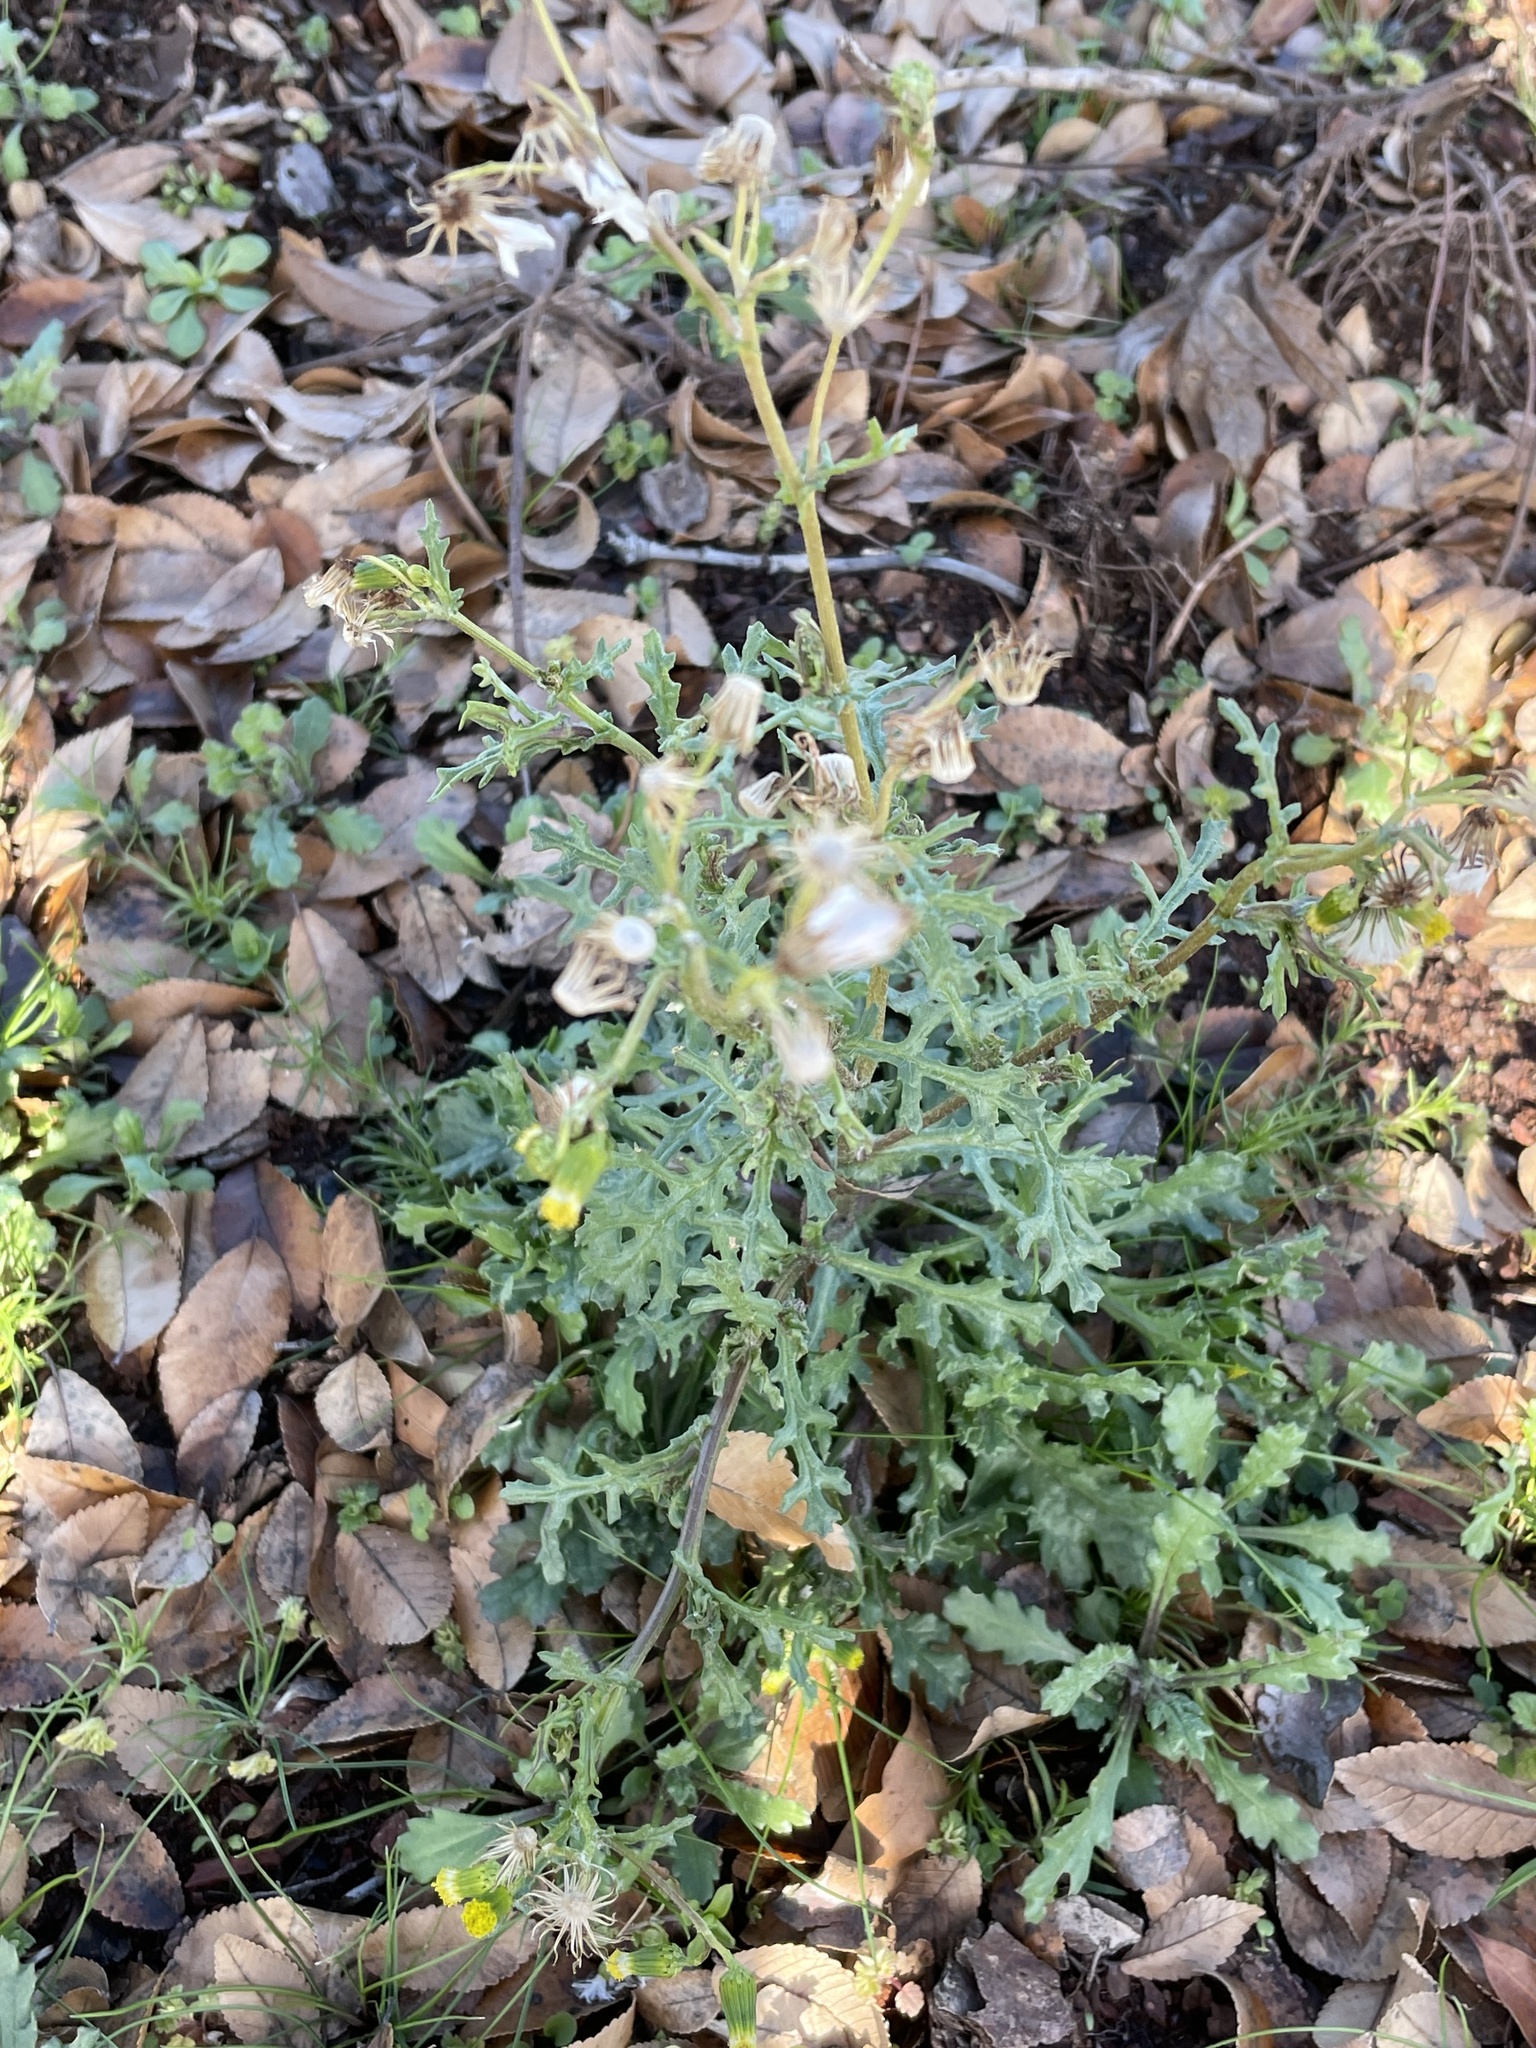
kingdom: Plantae
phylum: Tracheophyta
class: Magnoliopsida
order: Asterales
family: Asteraceae
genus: Senecio
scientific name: Senecio vulgaris
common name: Old-man-in-the-spring
